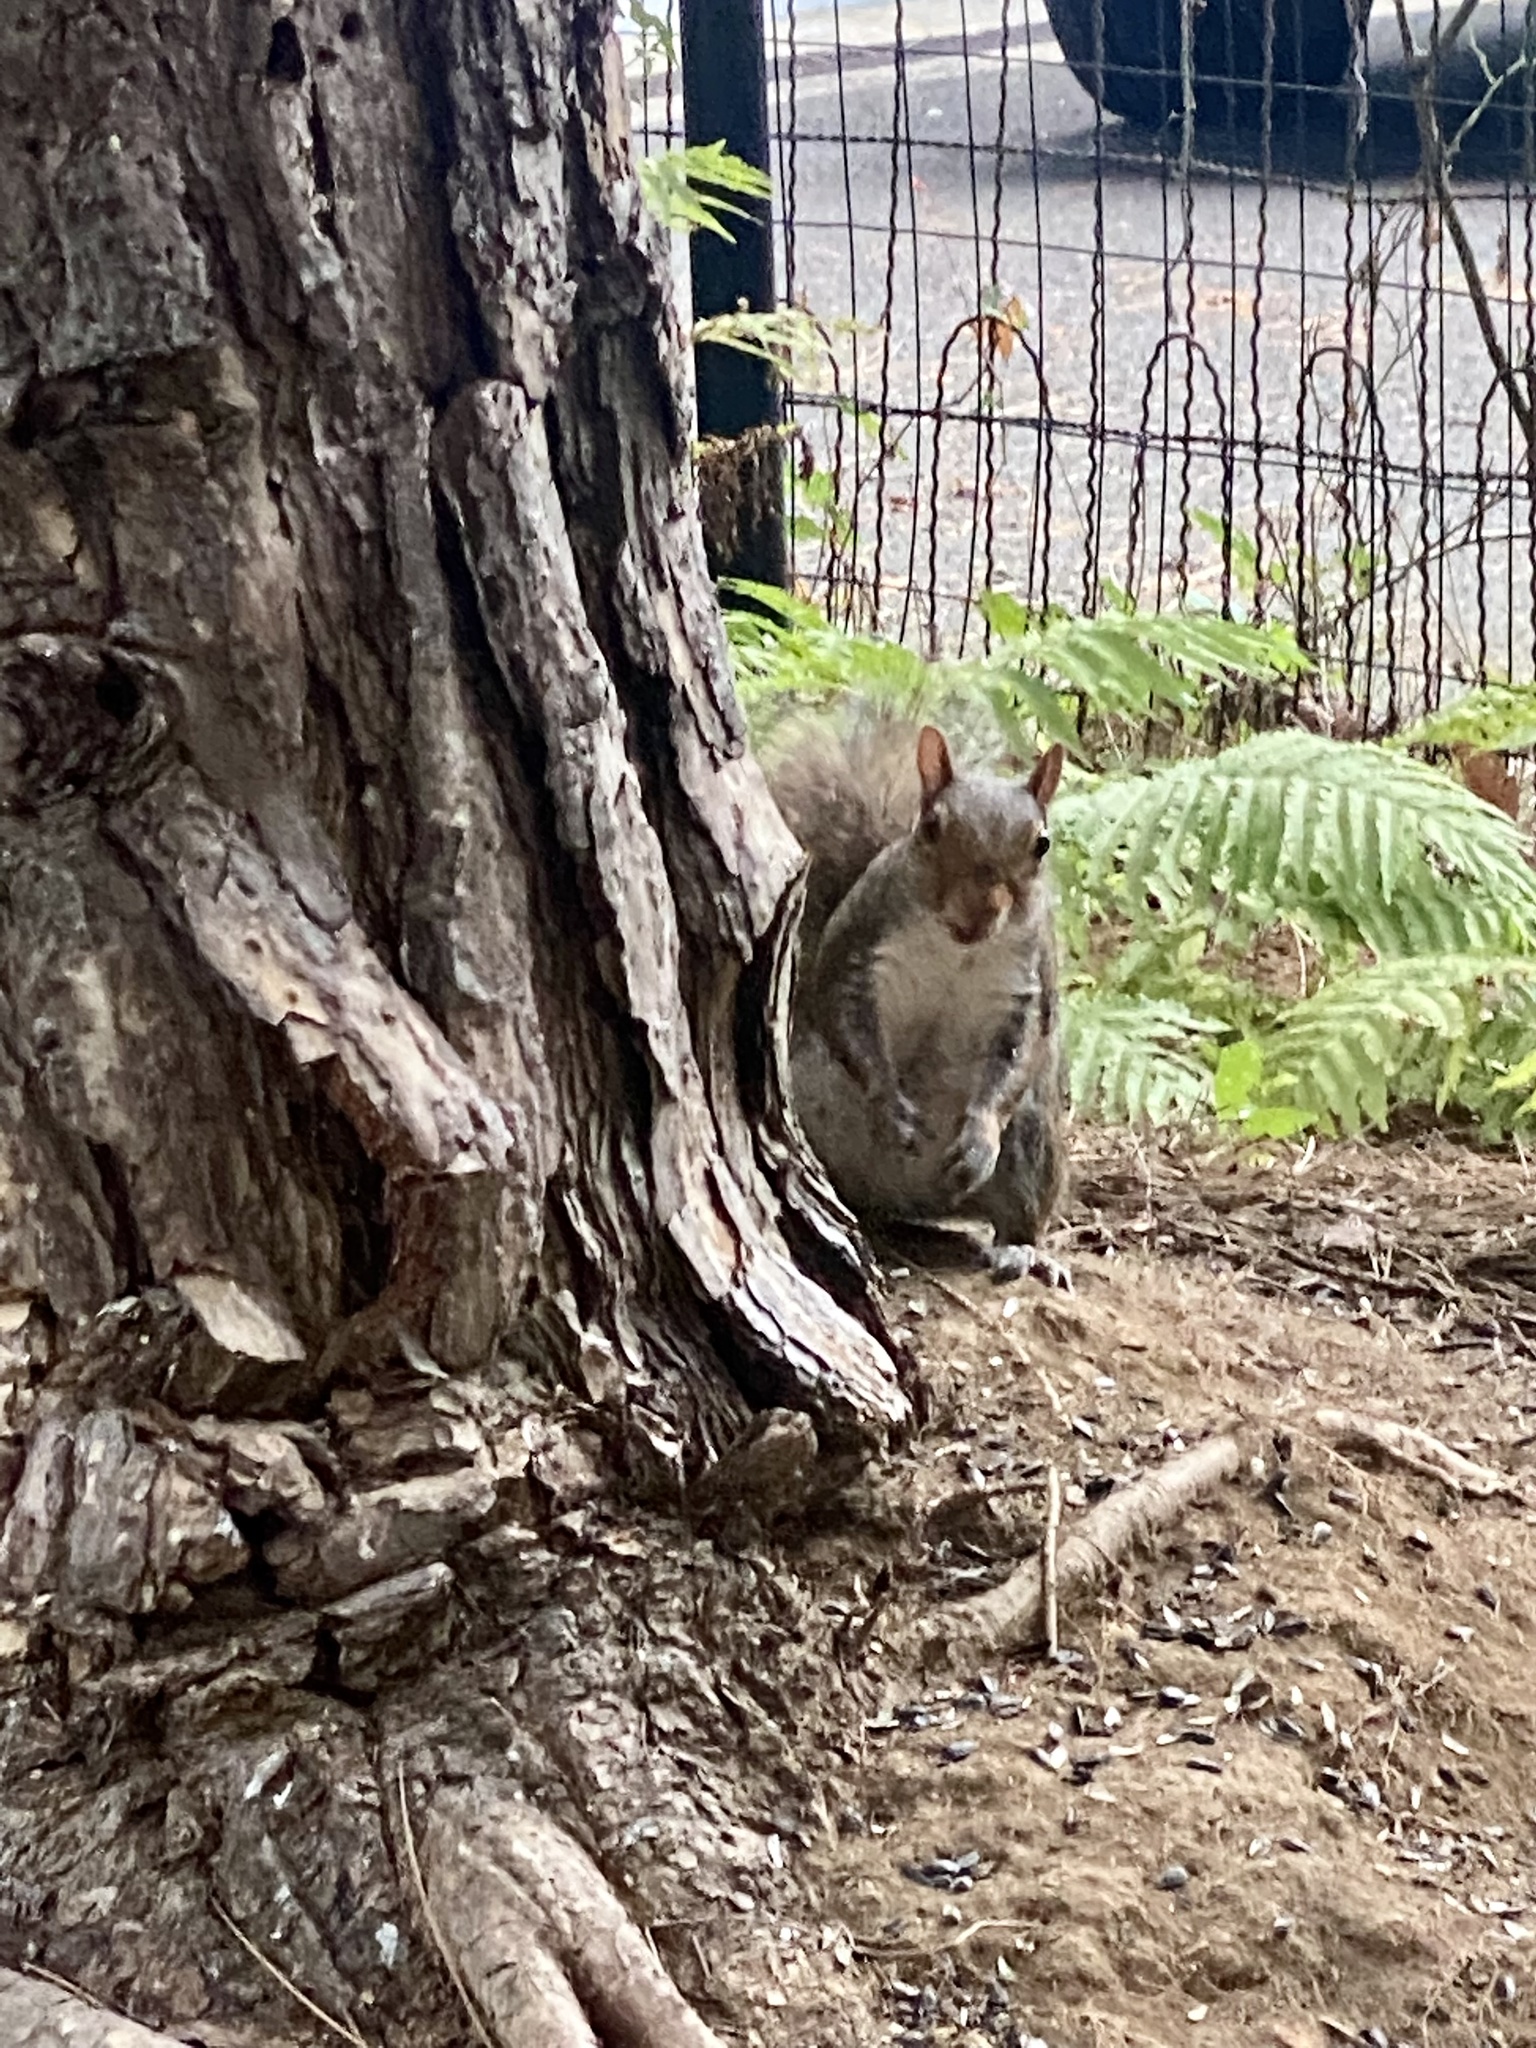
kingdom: Animalia
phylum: Chordata
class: Mammalia
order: Rodentia
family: Sciuridae
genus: Sciurus
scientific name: Sciurus carolinensis
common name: Eastern gray squirrel
